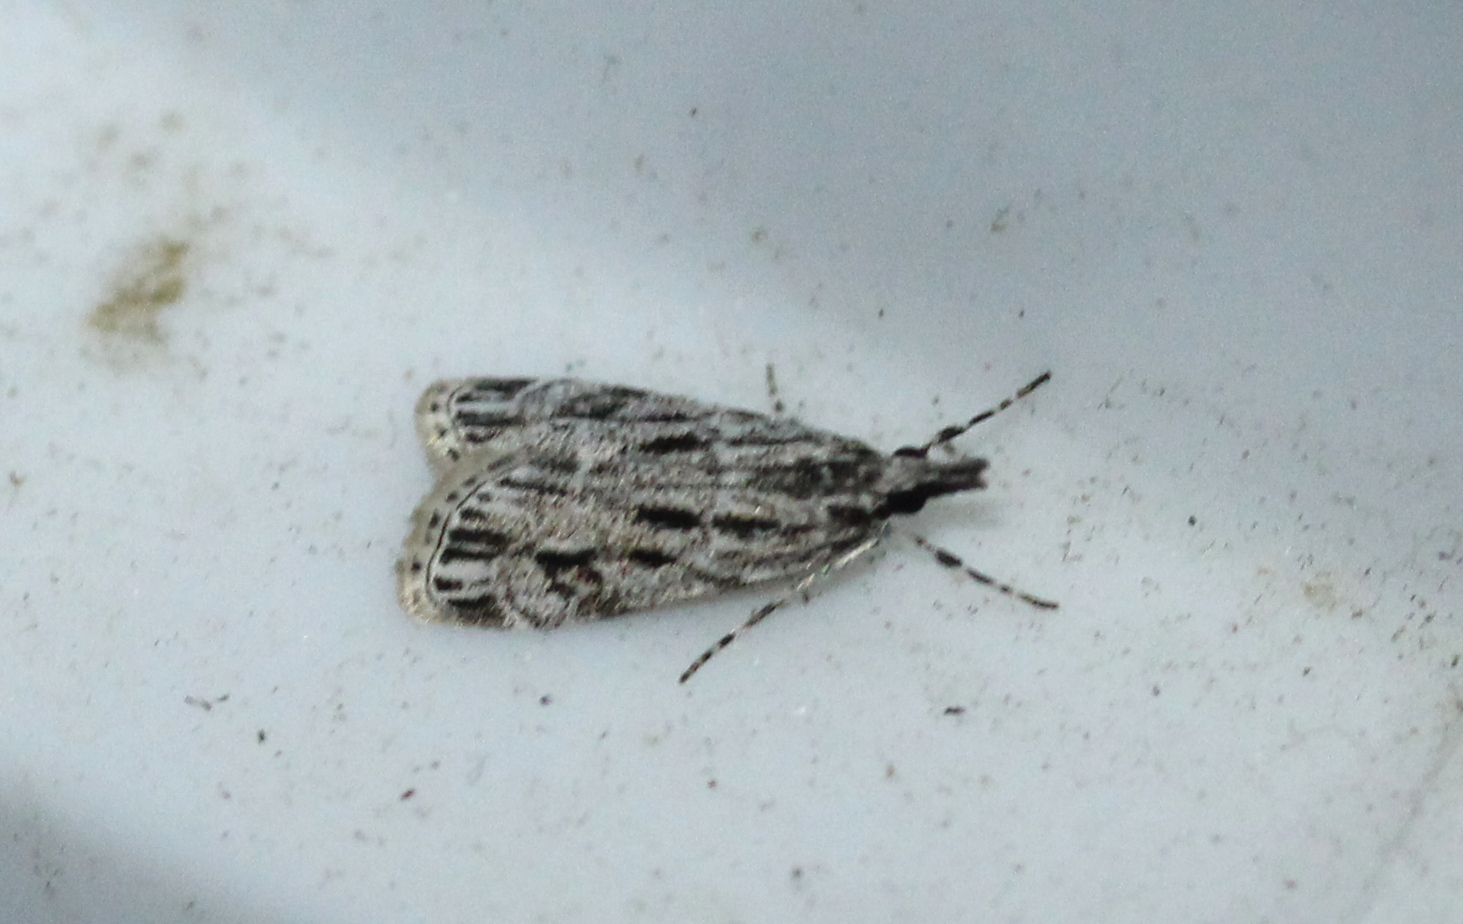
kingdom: Animalia
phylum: Arthropoda
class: Insecta
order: Lepidoptera
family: Crambidae
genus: Eudonia
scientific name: Eudonia strigalis
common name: Striped eudonia moth
